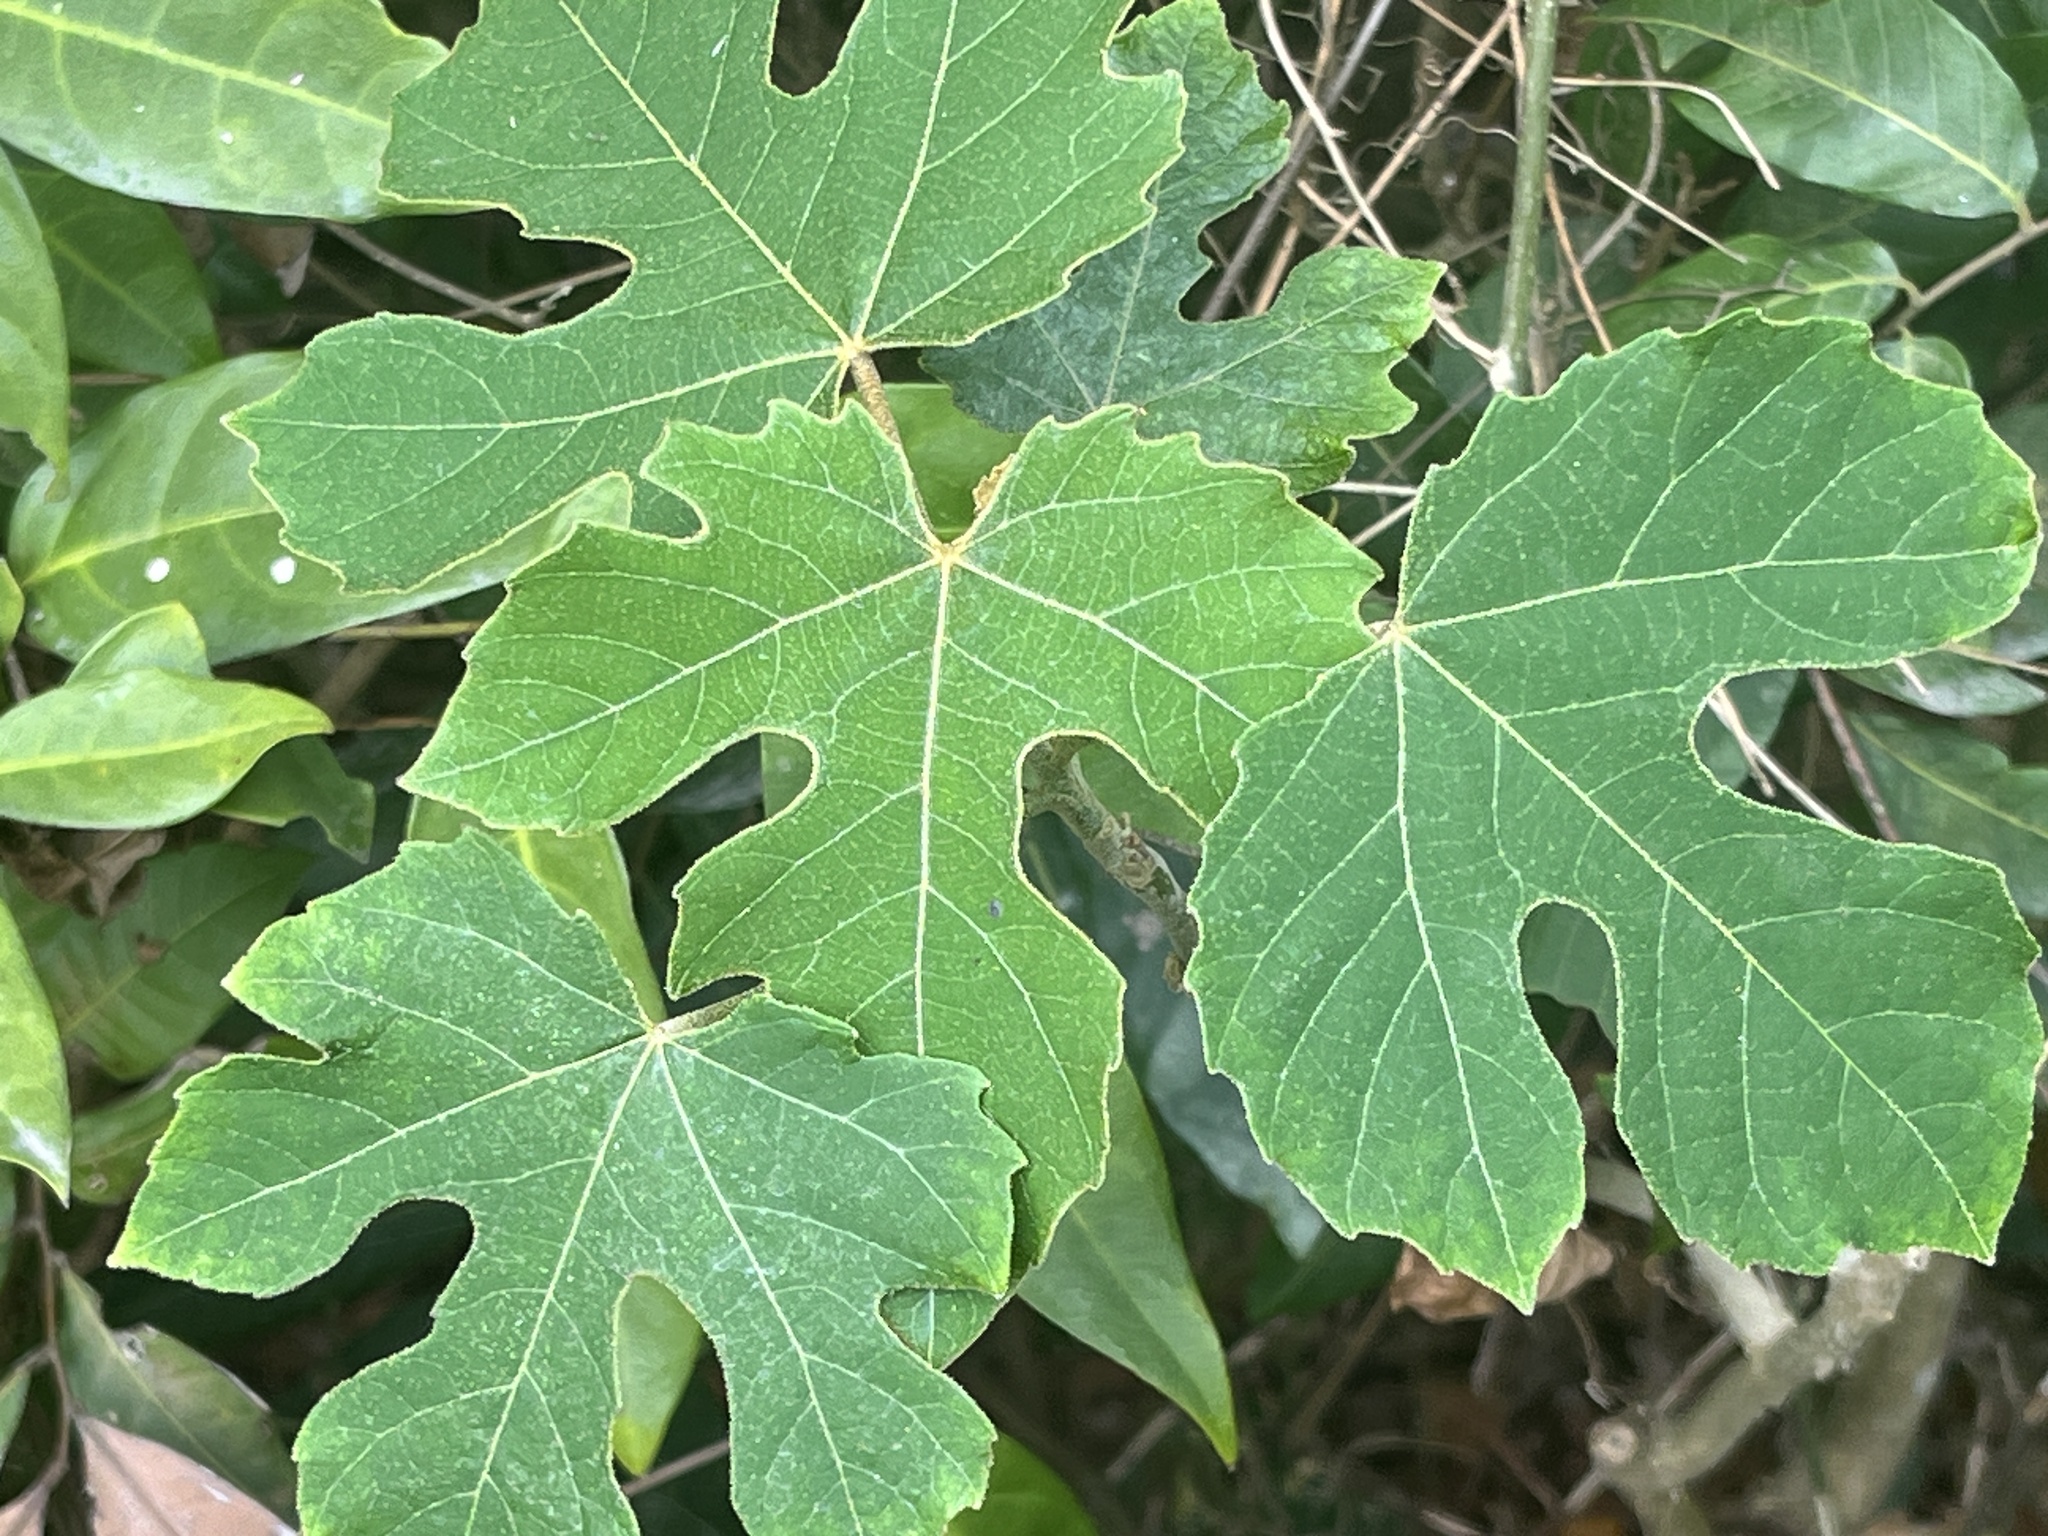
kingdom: Plantae
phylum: Tracheophyta
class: Magnoliopsida
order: Malpighiales
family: Euphorbiaceae
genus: Melanolepis
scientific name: Melanolepis multiglandulosa
